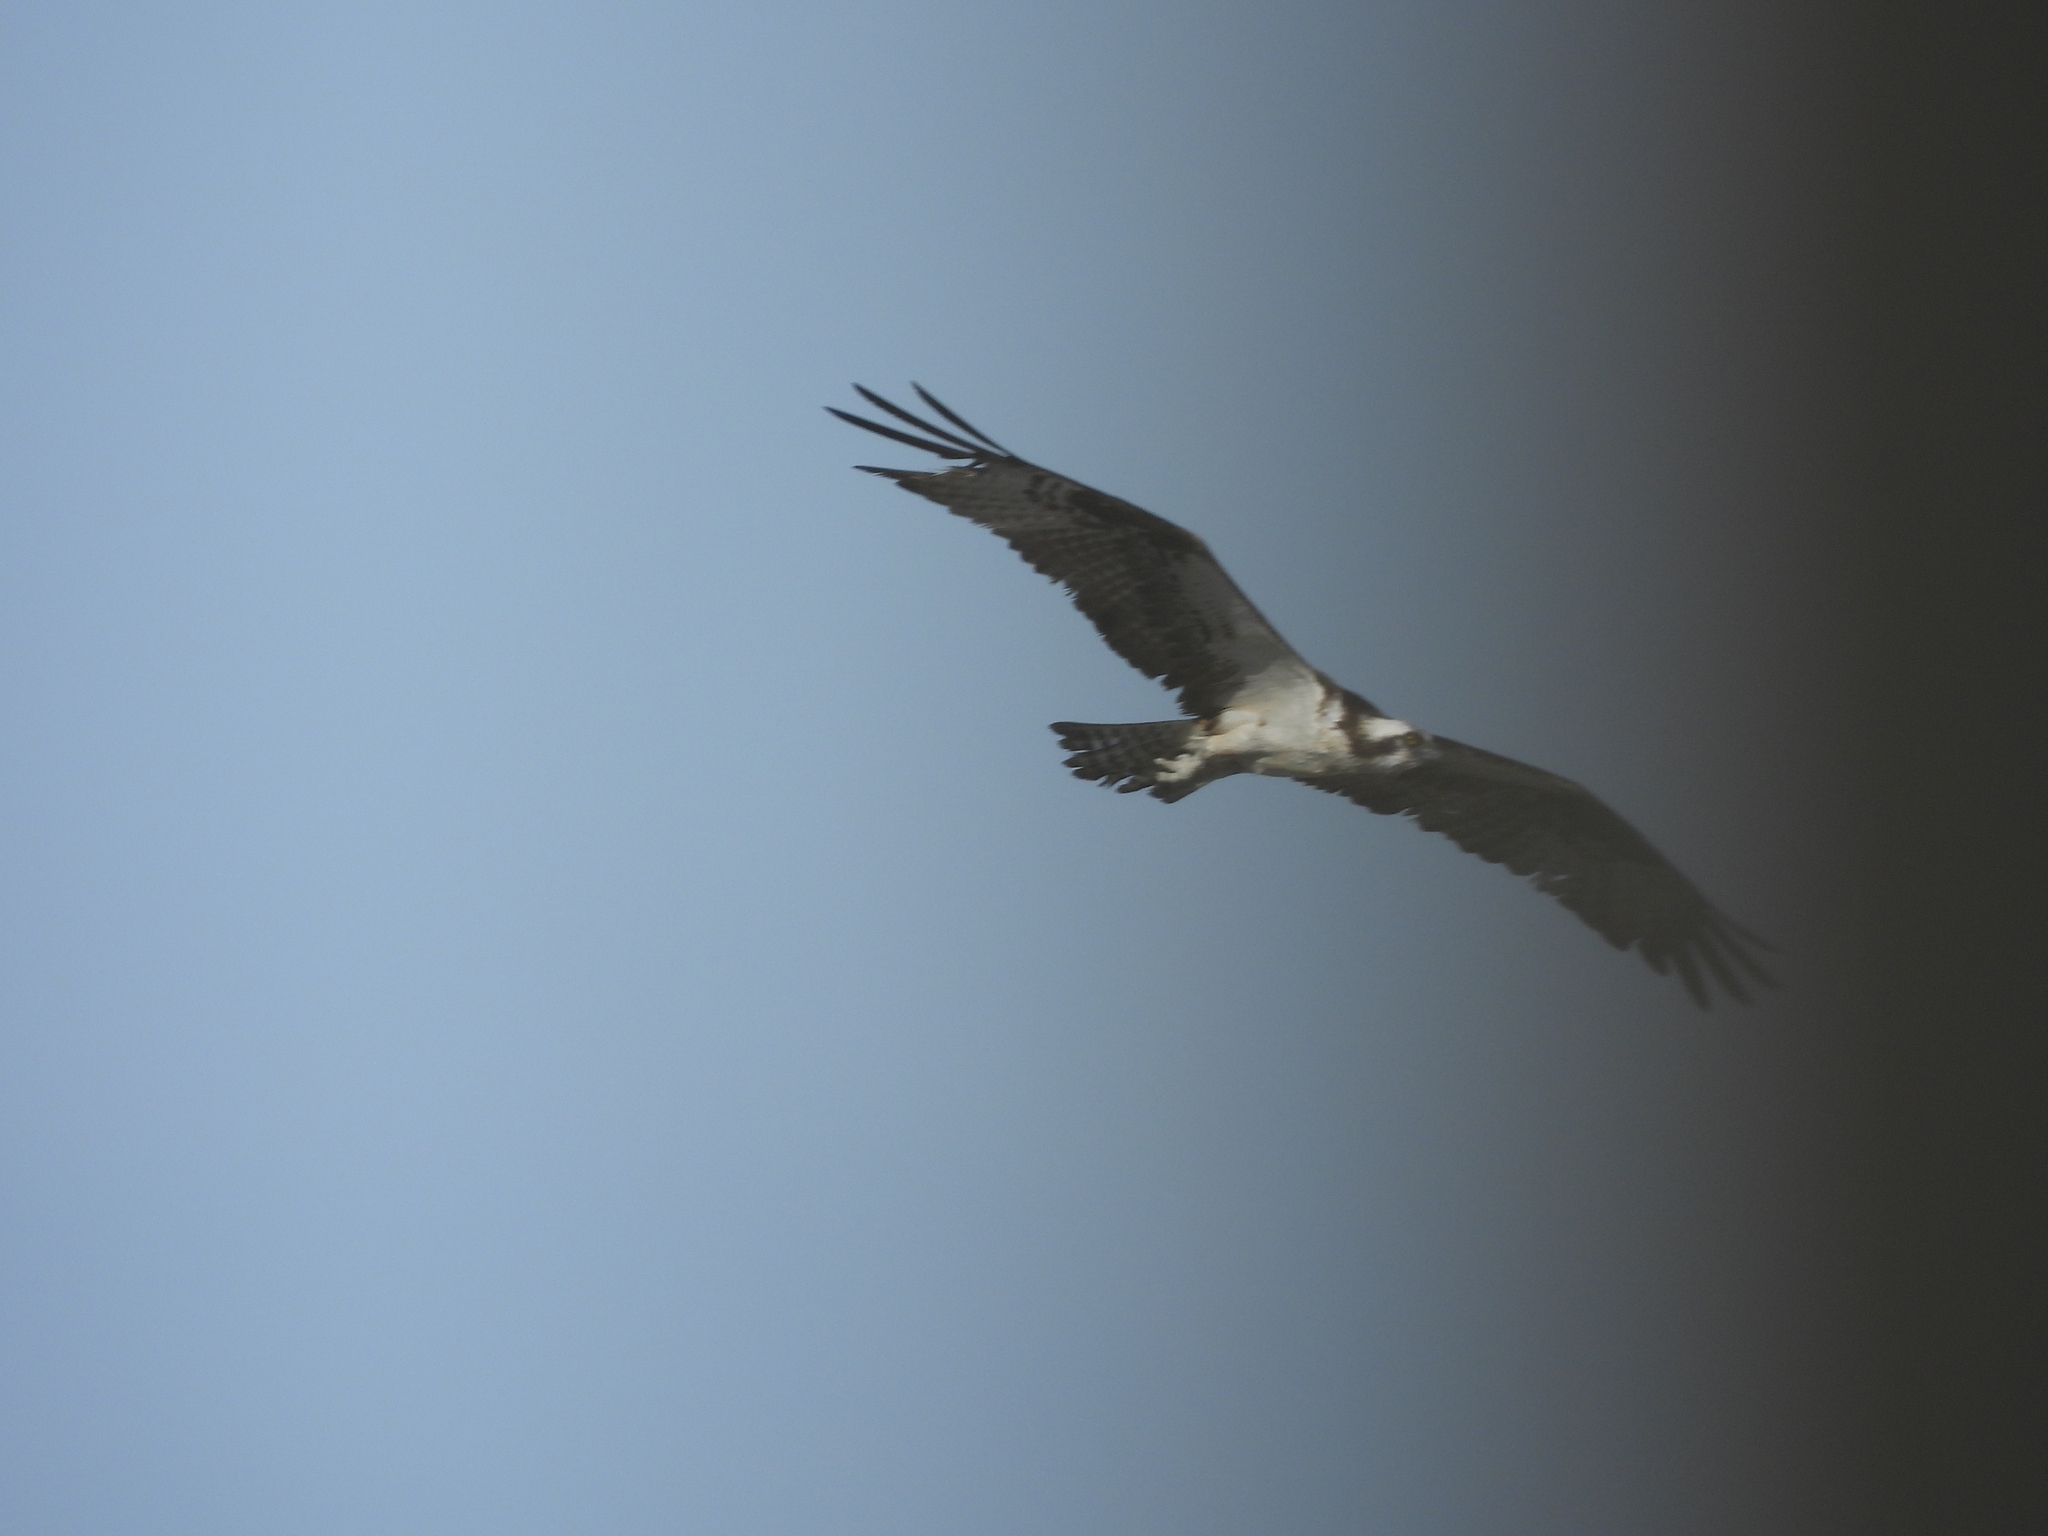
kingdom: Animalia
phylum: Chordata
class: Aves
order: Accipitriformes
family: Pandionidae
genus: Pandion
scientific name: Pandion haliaetus
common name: Osprey
